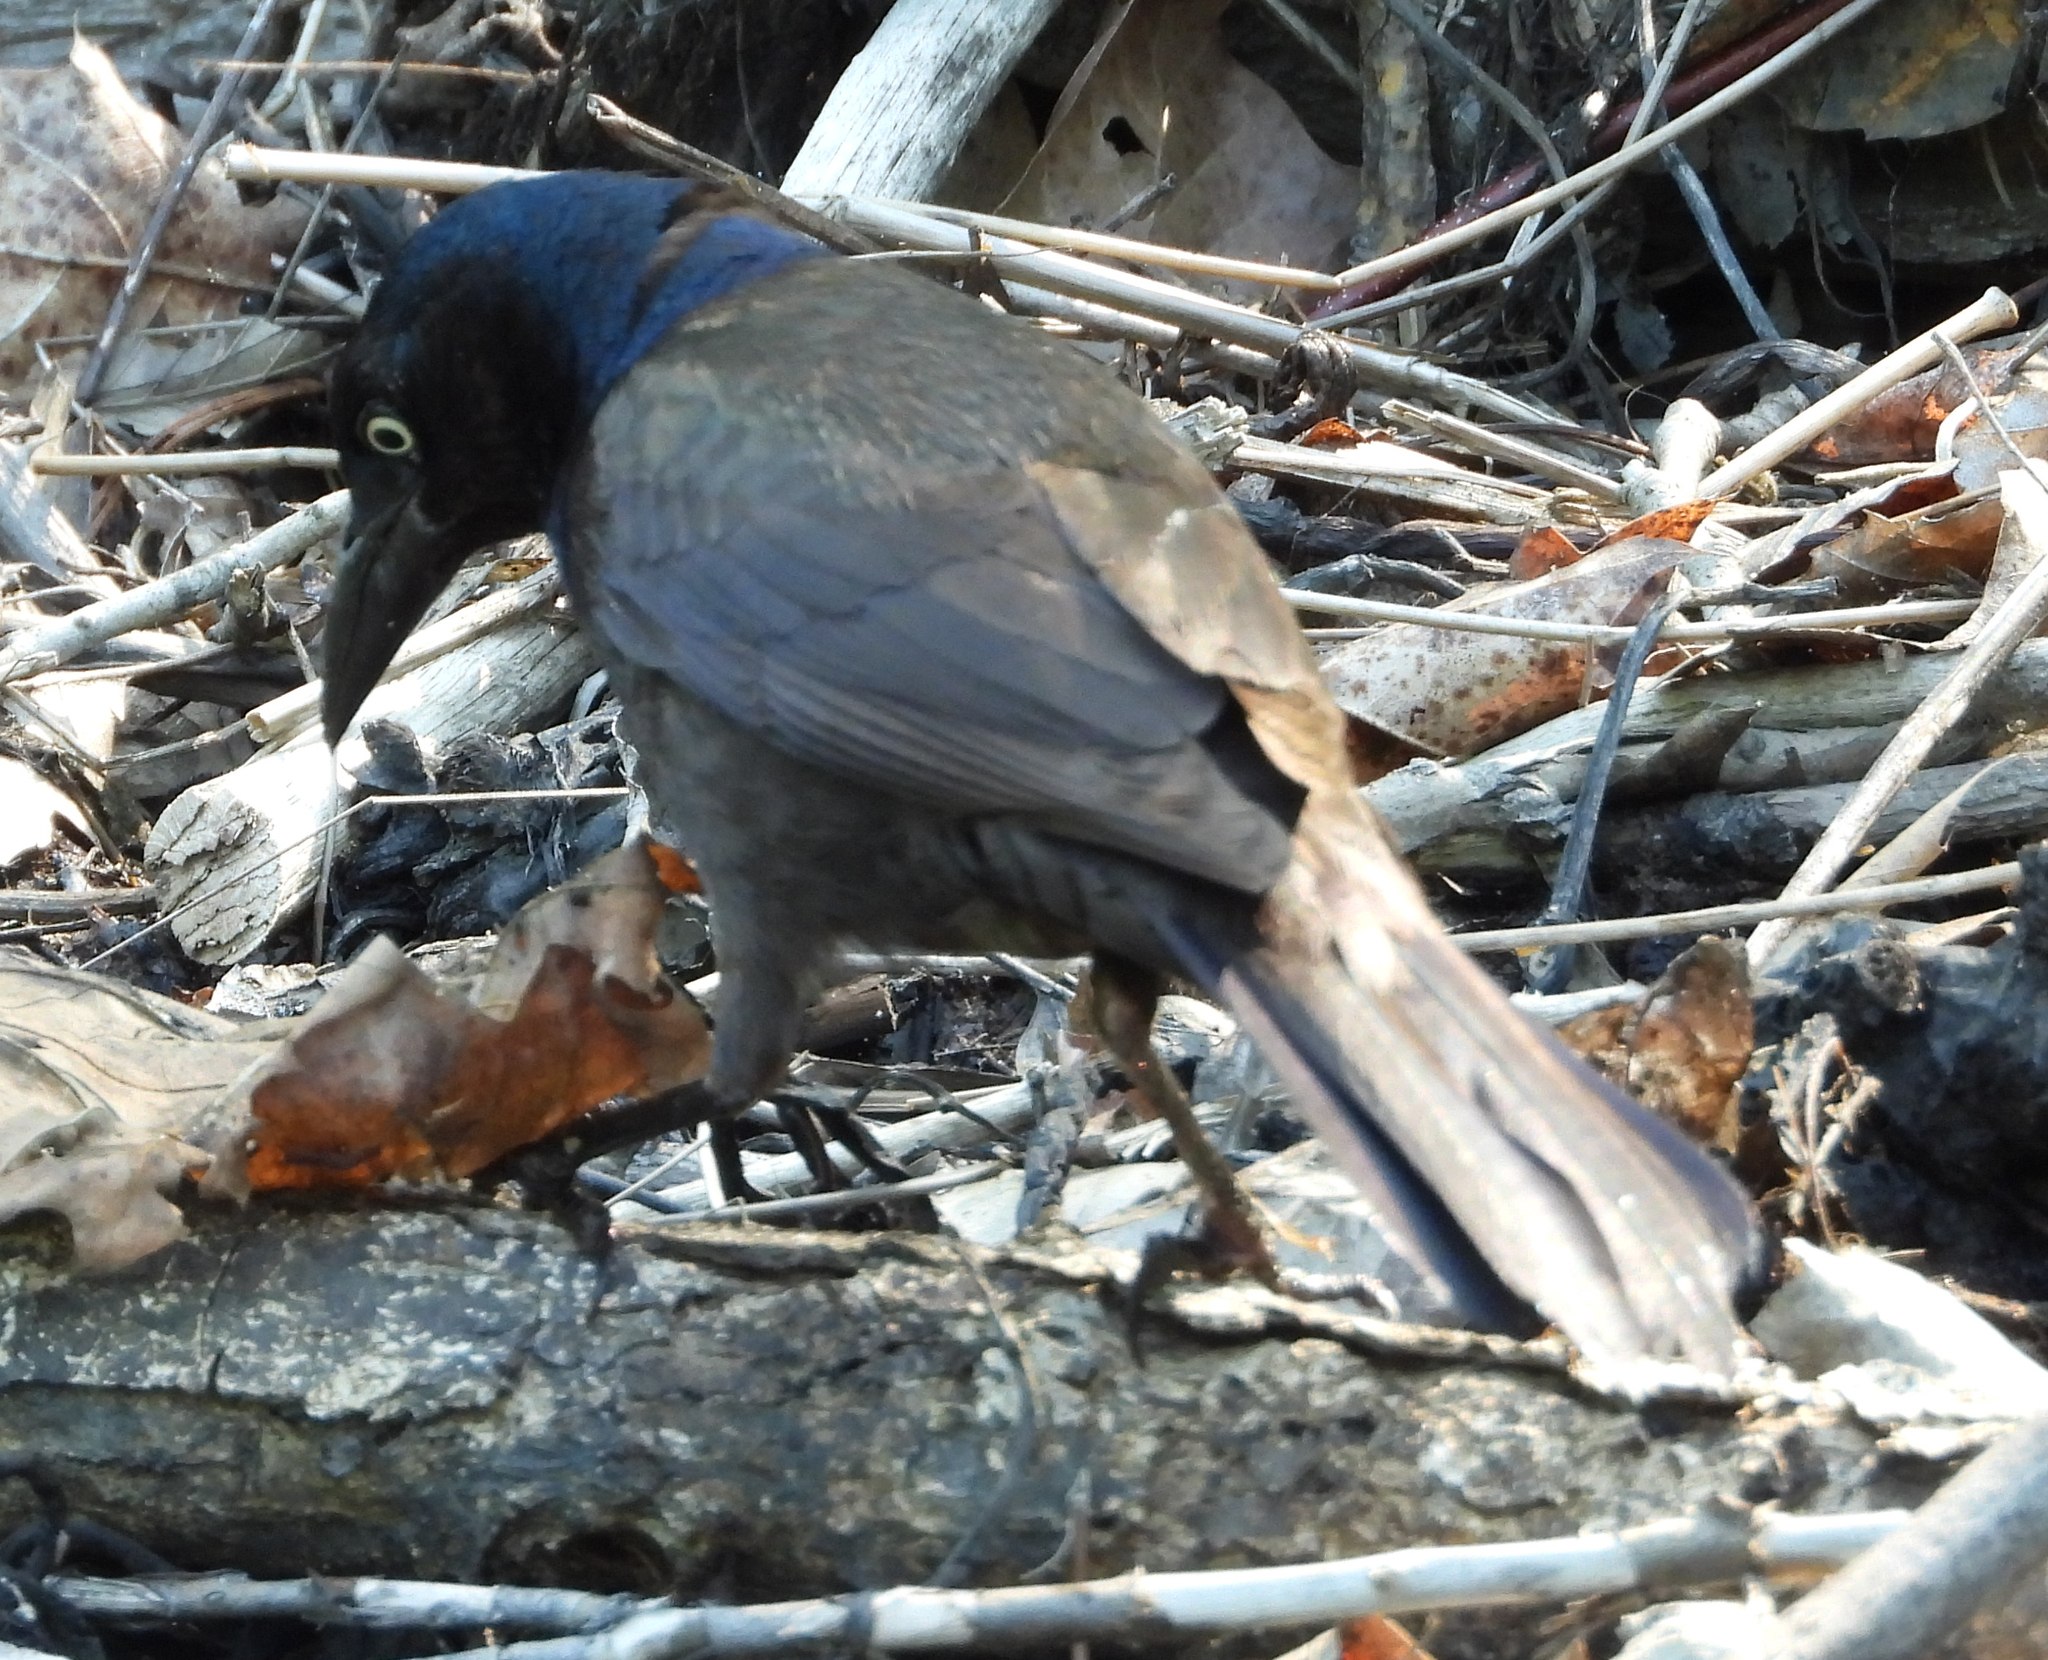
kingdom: Animalia
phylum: Chordata
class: Aves
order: Passeriformes
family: Icteridae
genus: Quiscalus
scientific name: Quiscalus quiscula
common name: Common grackle
